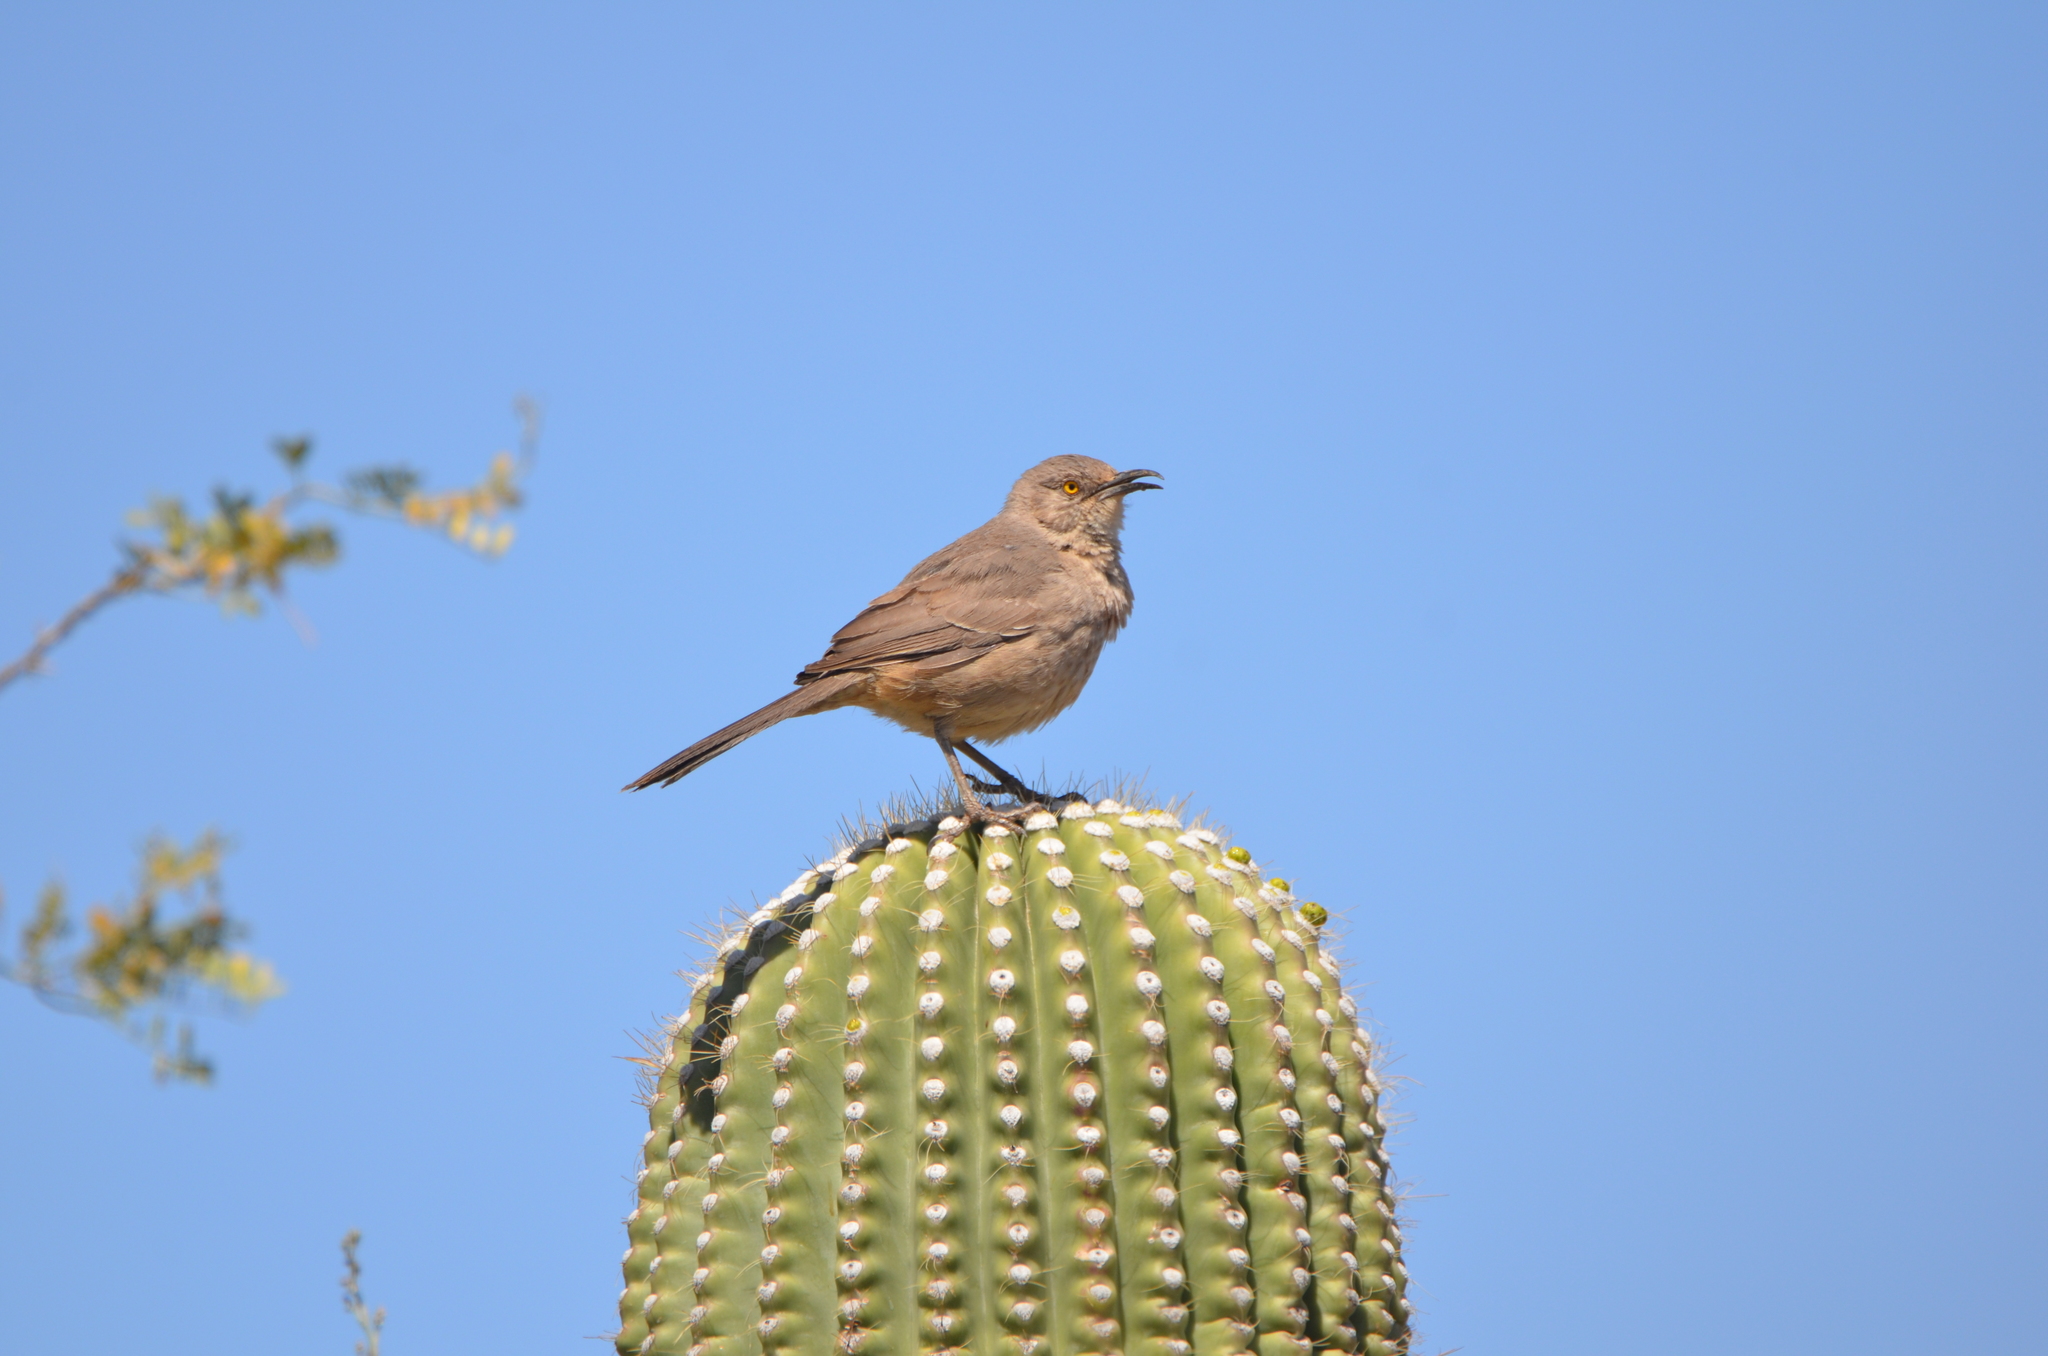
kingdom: Animalia
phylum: Chordata
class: Aves
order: Passeriformes
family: Mimidae
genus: Toxostoma
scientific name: Toxostoma curvirostre
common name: Curve-billed thrasher
